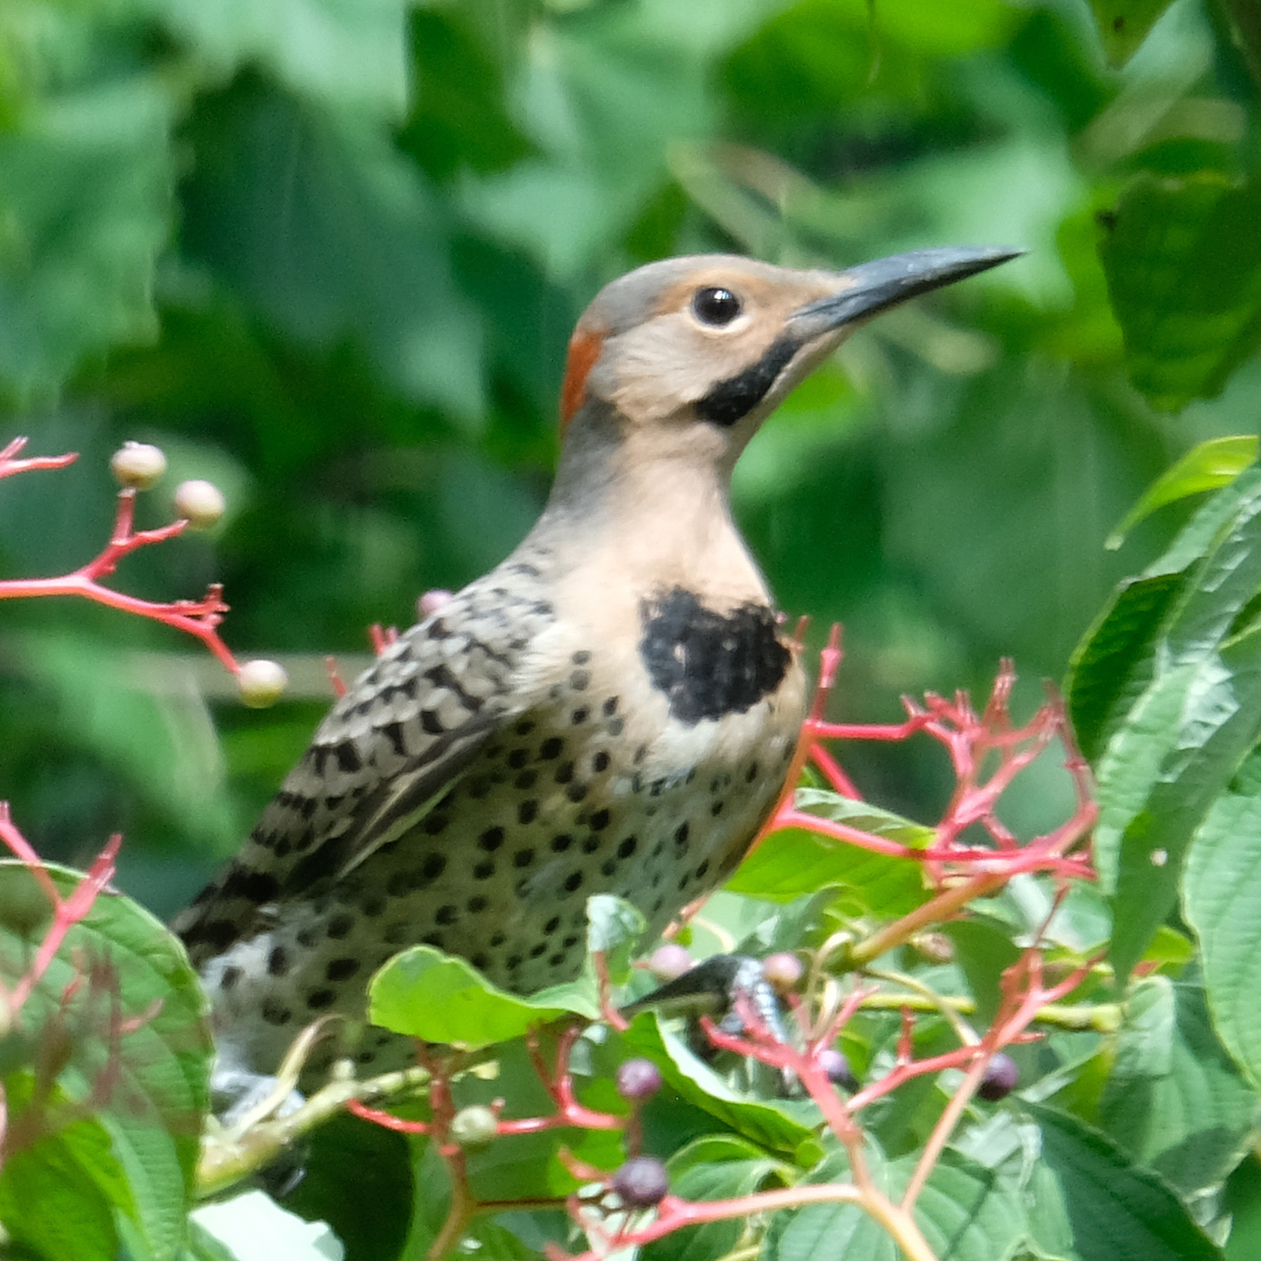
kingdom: Animalia
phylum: Chordata
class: Aves
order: Piciformes
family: Picidae
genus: Colaptes
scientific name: Colaptes auratus
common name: Northern flicker
